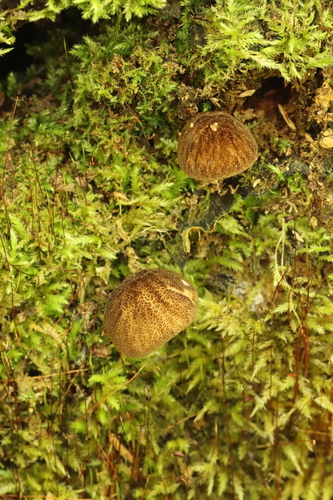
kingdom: Fungi
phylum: Basidiomycota
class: Agaricomycetes
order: Agaricales
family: Pluteaceae
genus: Pluteus
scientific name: Pluteus umbrosus
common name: Velvet shield
